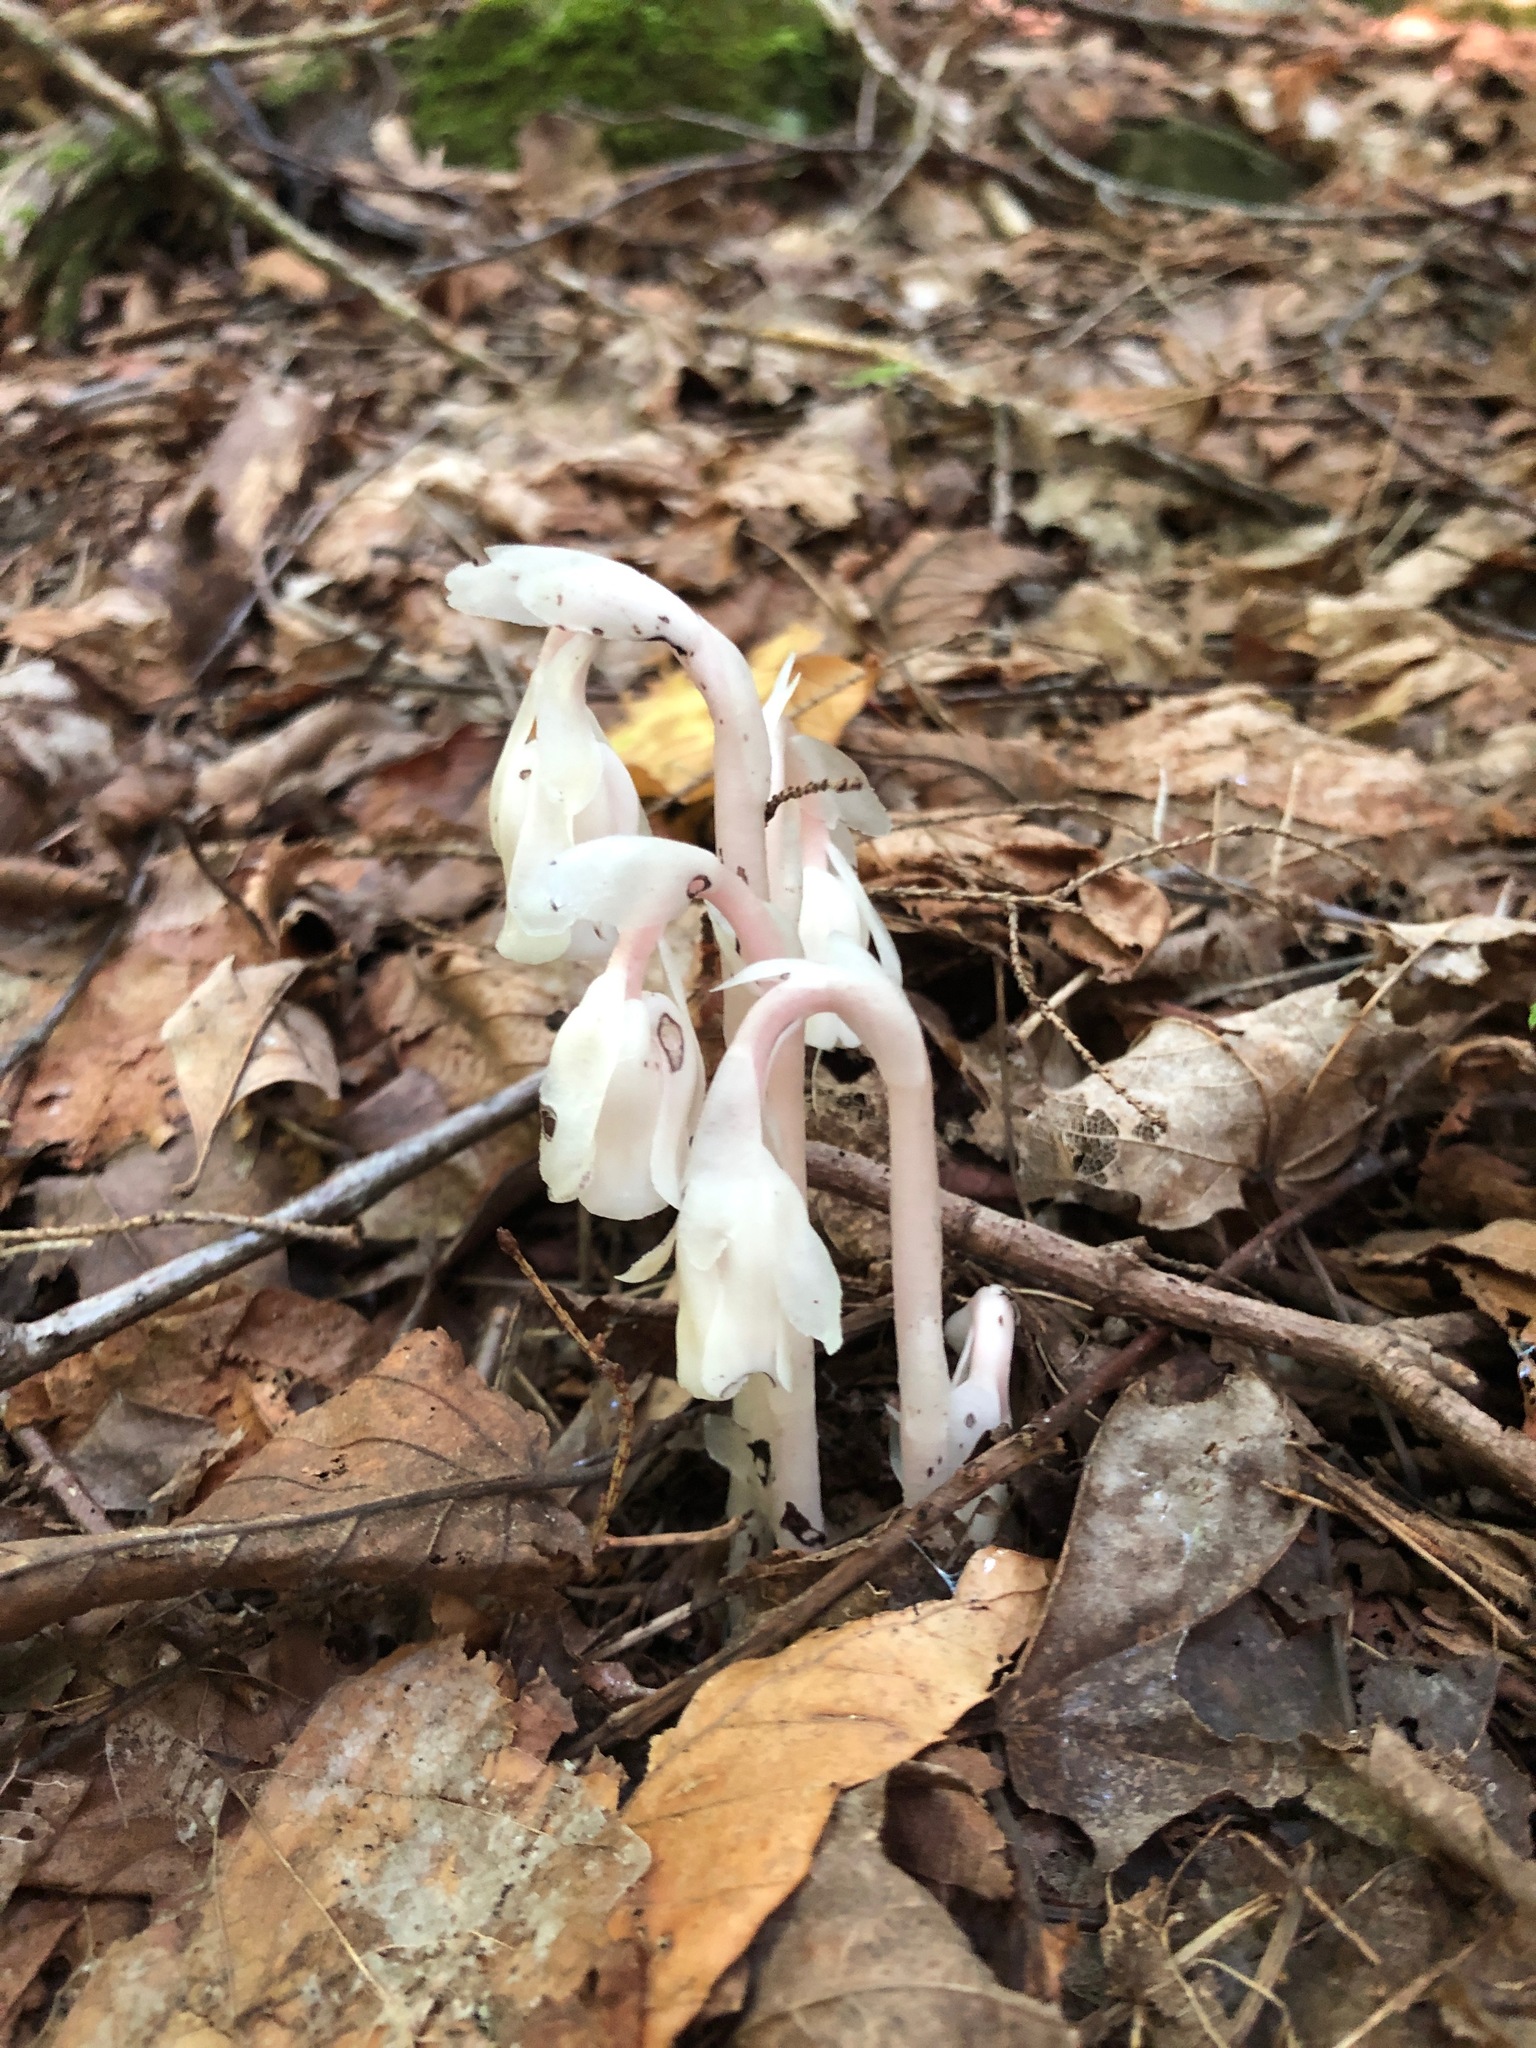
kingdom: Plantae
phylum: Tracheophyta
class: Magnoliopsida
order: Ericales
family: Ericaceae
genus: Monotropa
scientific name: Monotropa uniflora
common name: Convulsion root
